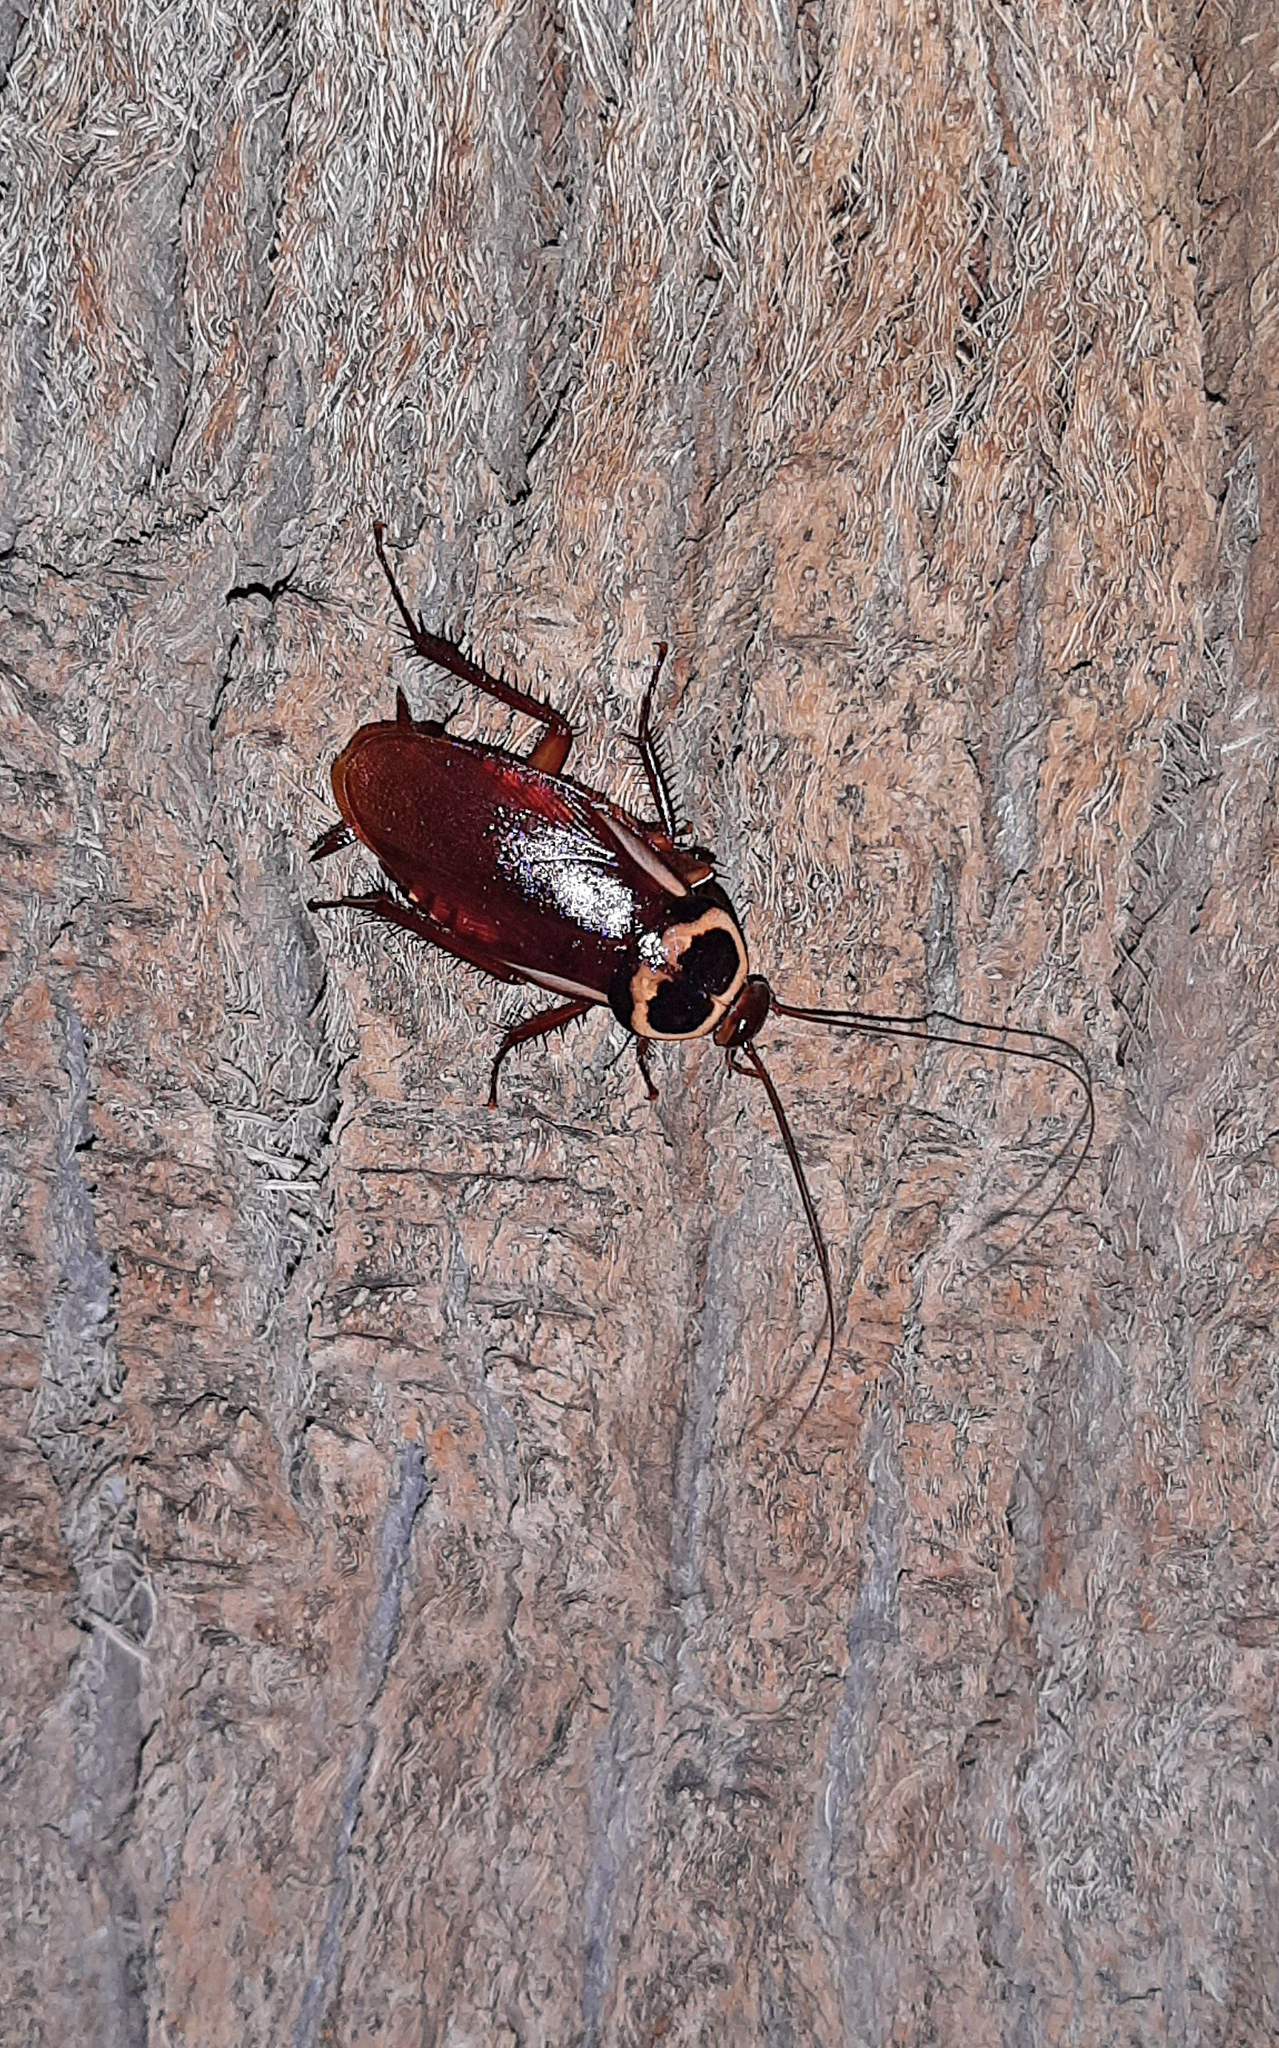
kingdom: Animalia
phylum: Arthropoda
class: Insecta
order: Blattodea
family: Blattidae
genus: Periplaneta
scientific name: Periplaneta australasiae
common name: Australian cockroach
